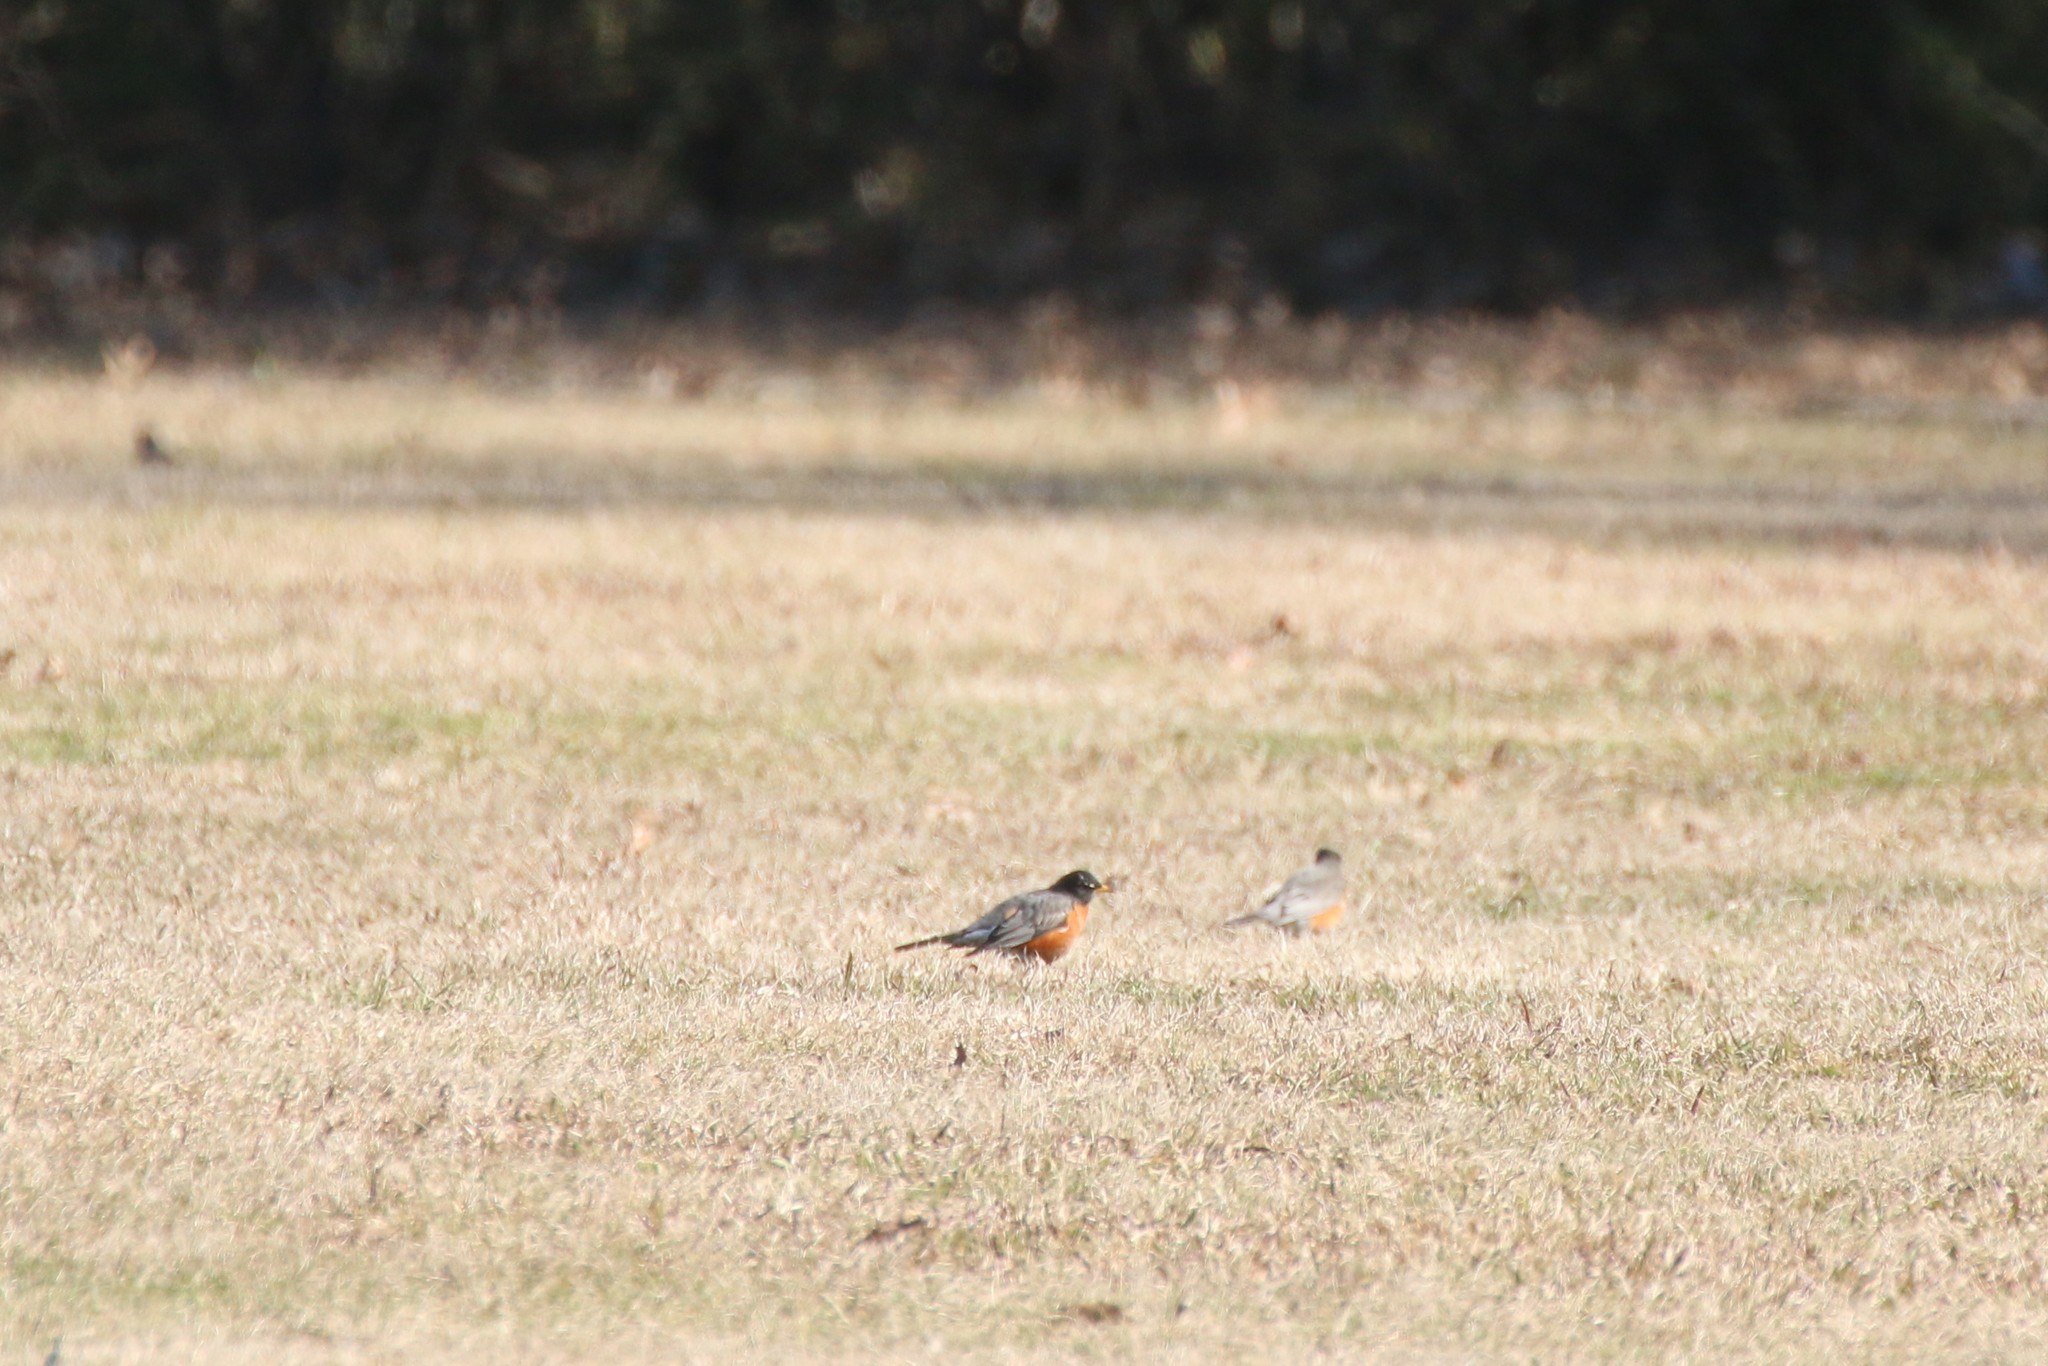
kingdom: Animalia
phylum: Chordata
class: Aves
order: Passeriformes
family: Turdidae
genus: Turdus
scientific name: Turdus migratorius
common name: American robin
